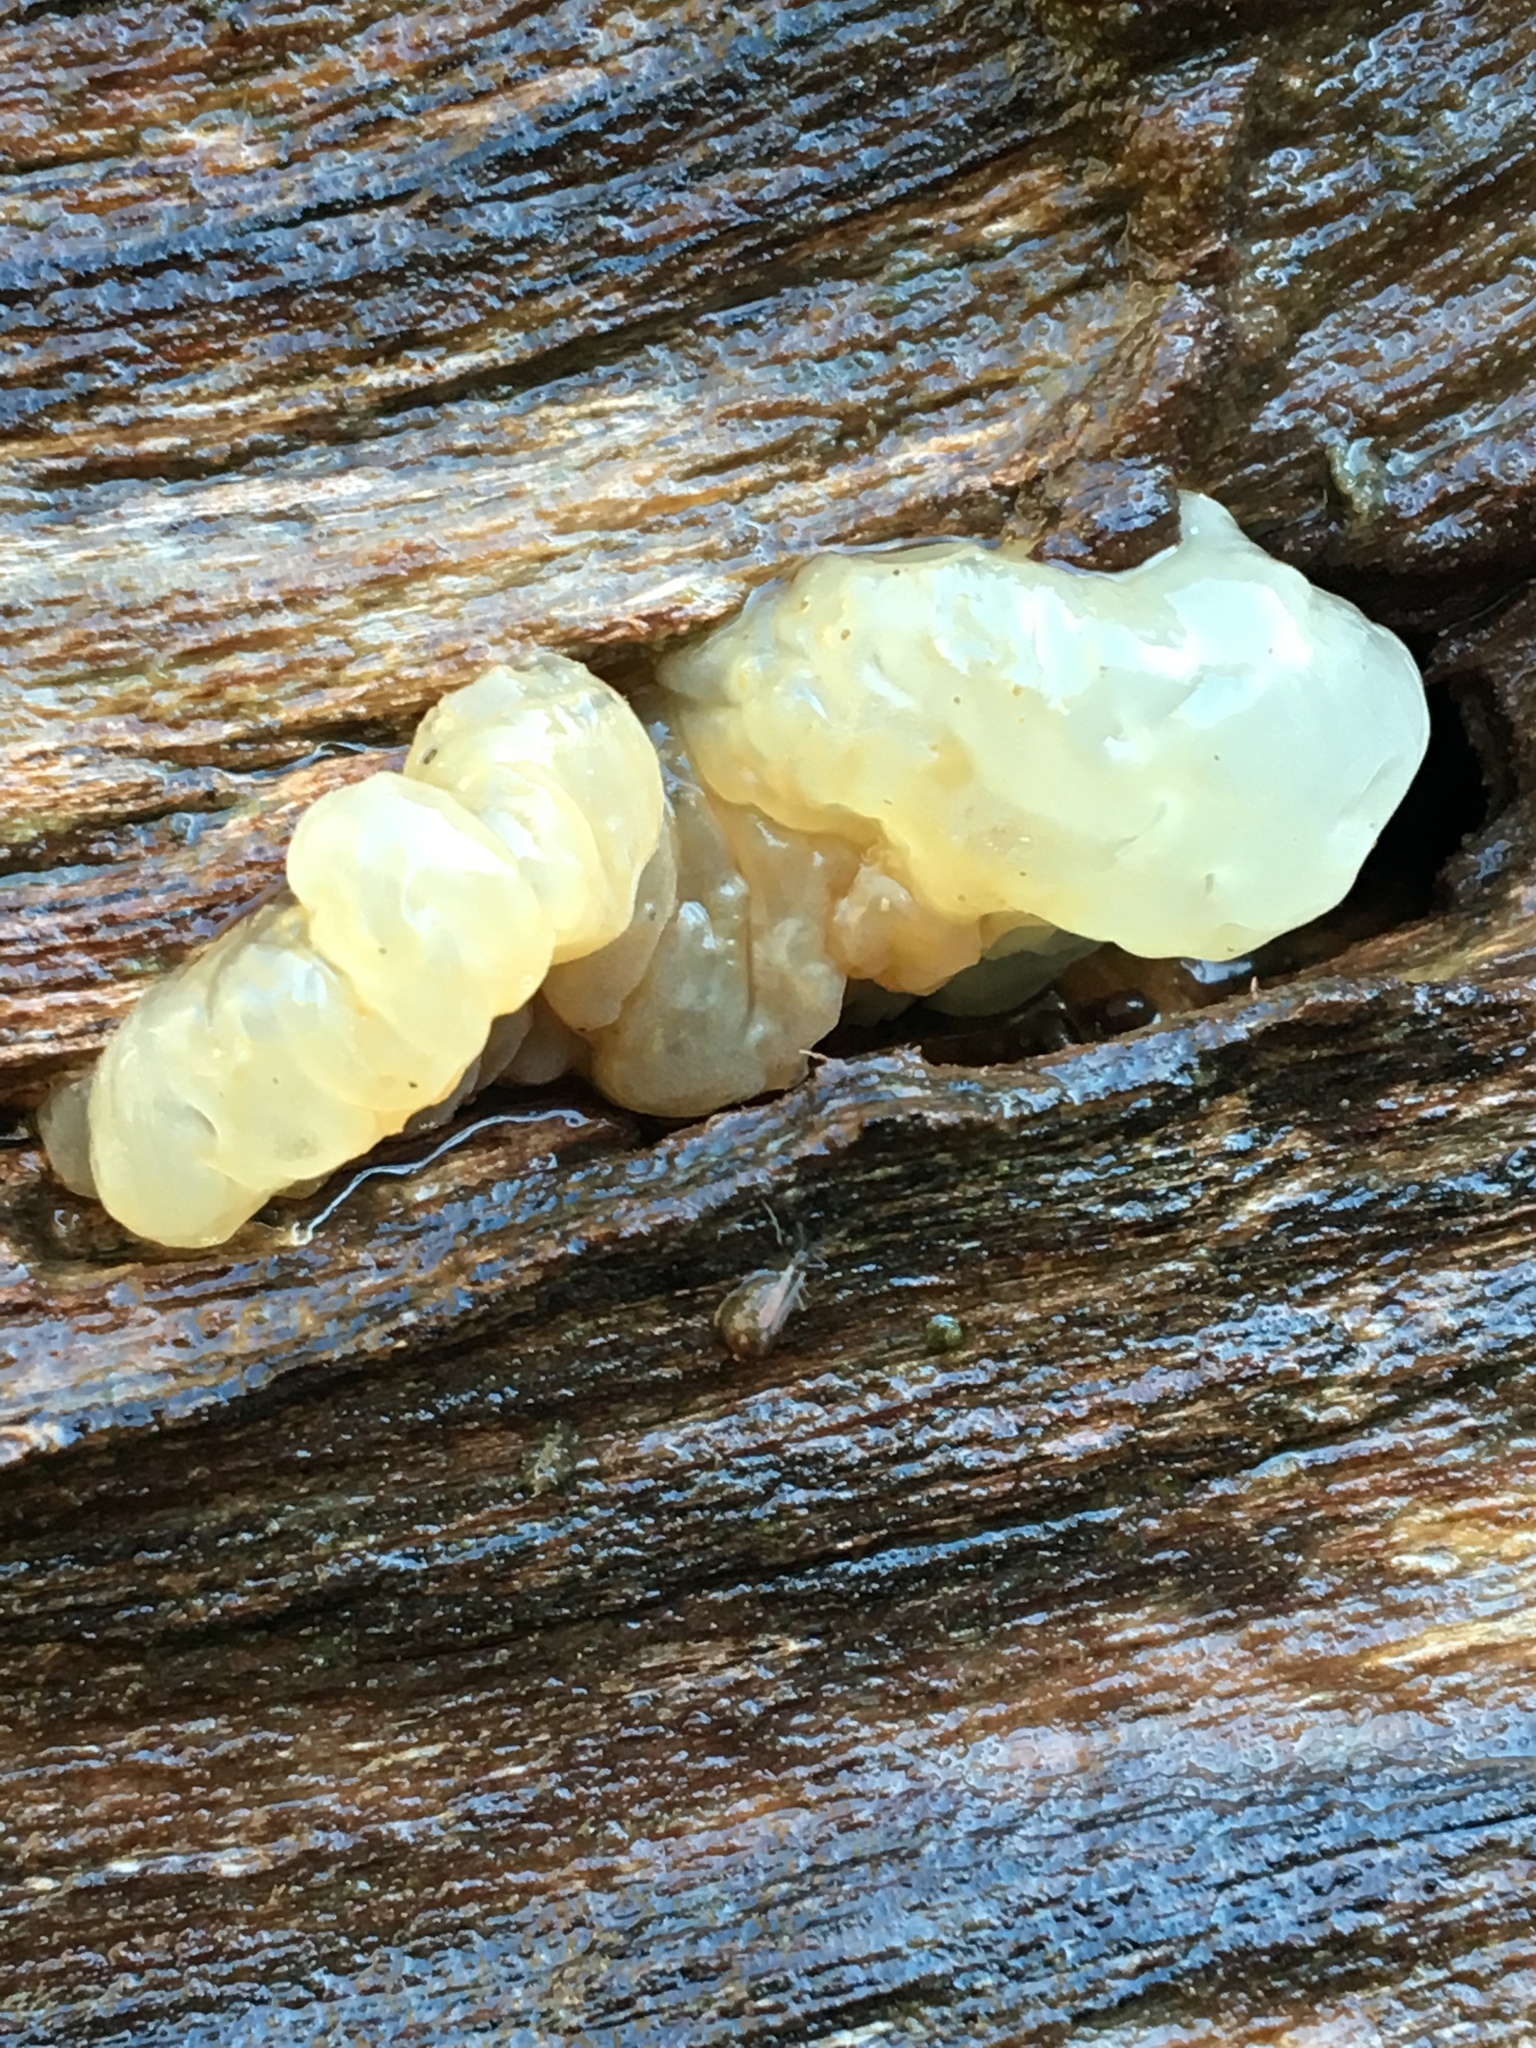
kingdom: Fungi
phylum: Basidiomycota
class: Agaricomycetes
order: Auriculariales
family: Hyaloriaceae
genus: Myxarium
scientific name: Myxarium nucleatum
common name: Crystal brain fungus
